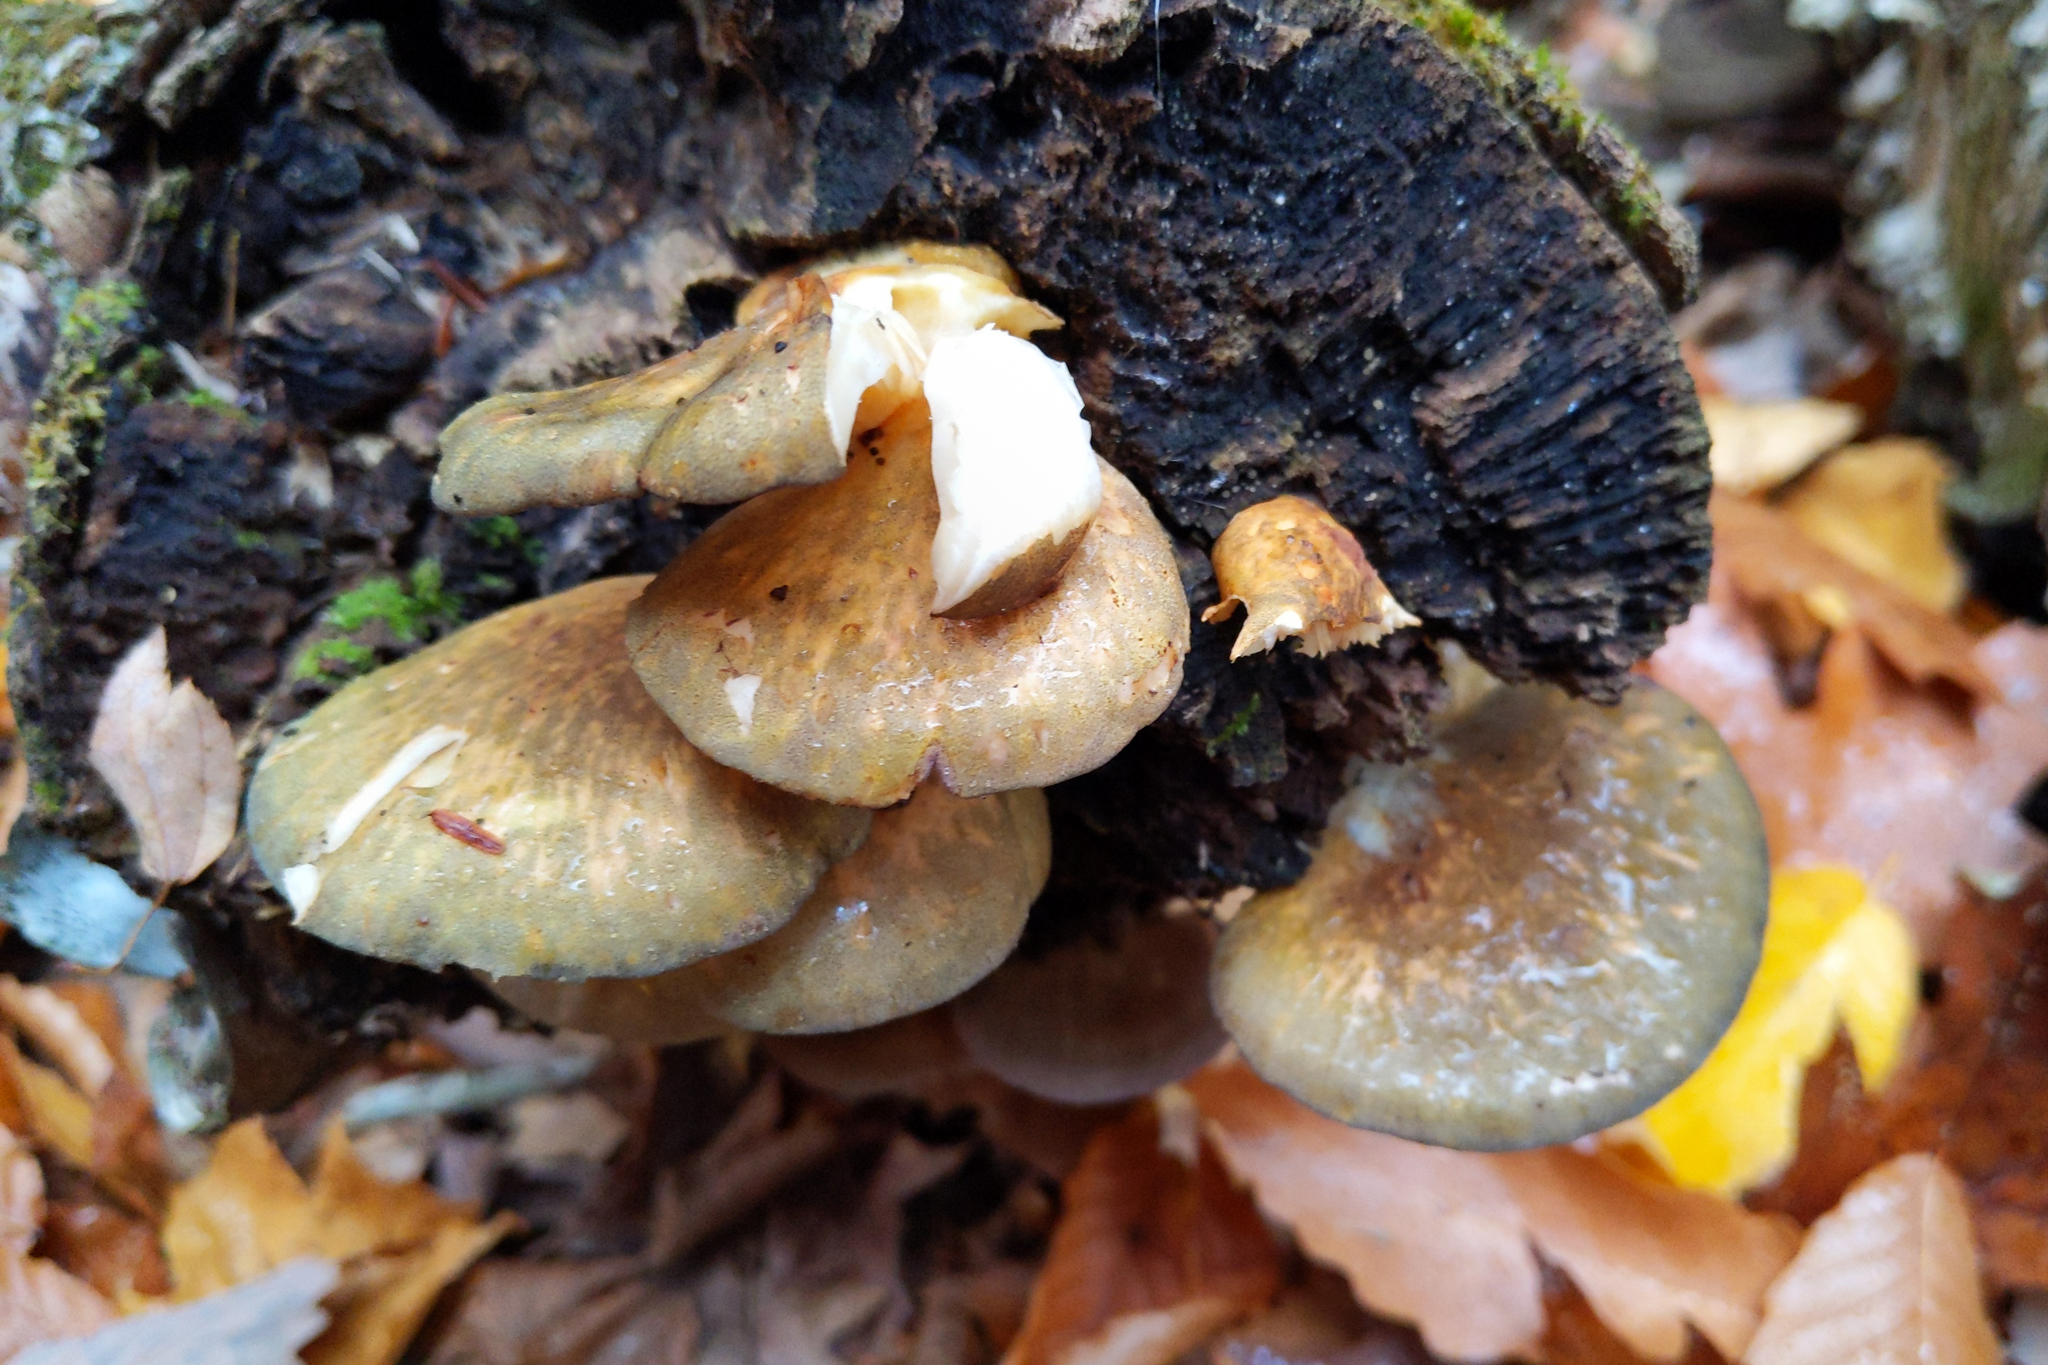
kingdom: Fungi
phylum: Basidiomycota
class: Agaricomycetes
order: Agaricales
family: Sarcomyxaceae
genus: Sarcomyxa
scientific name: Sarcomyxa serotina
